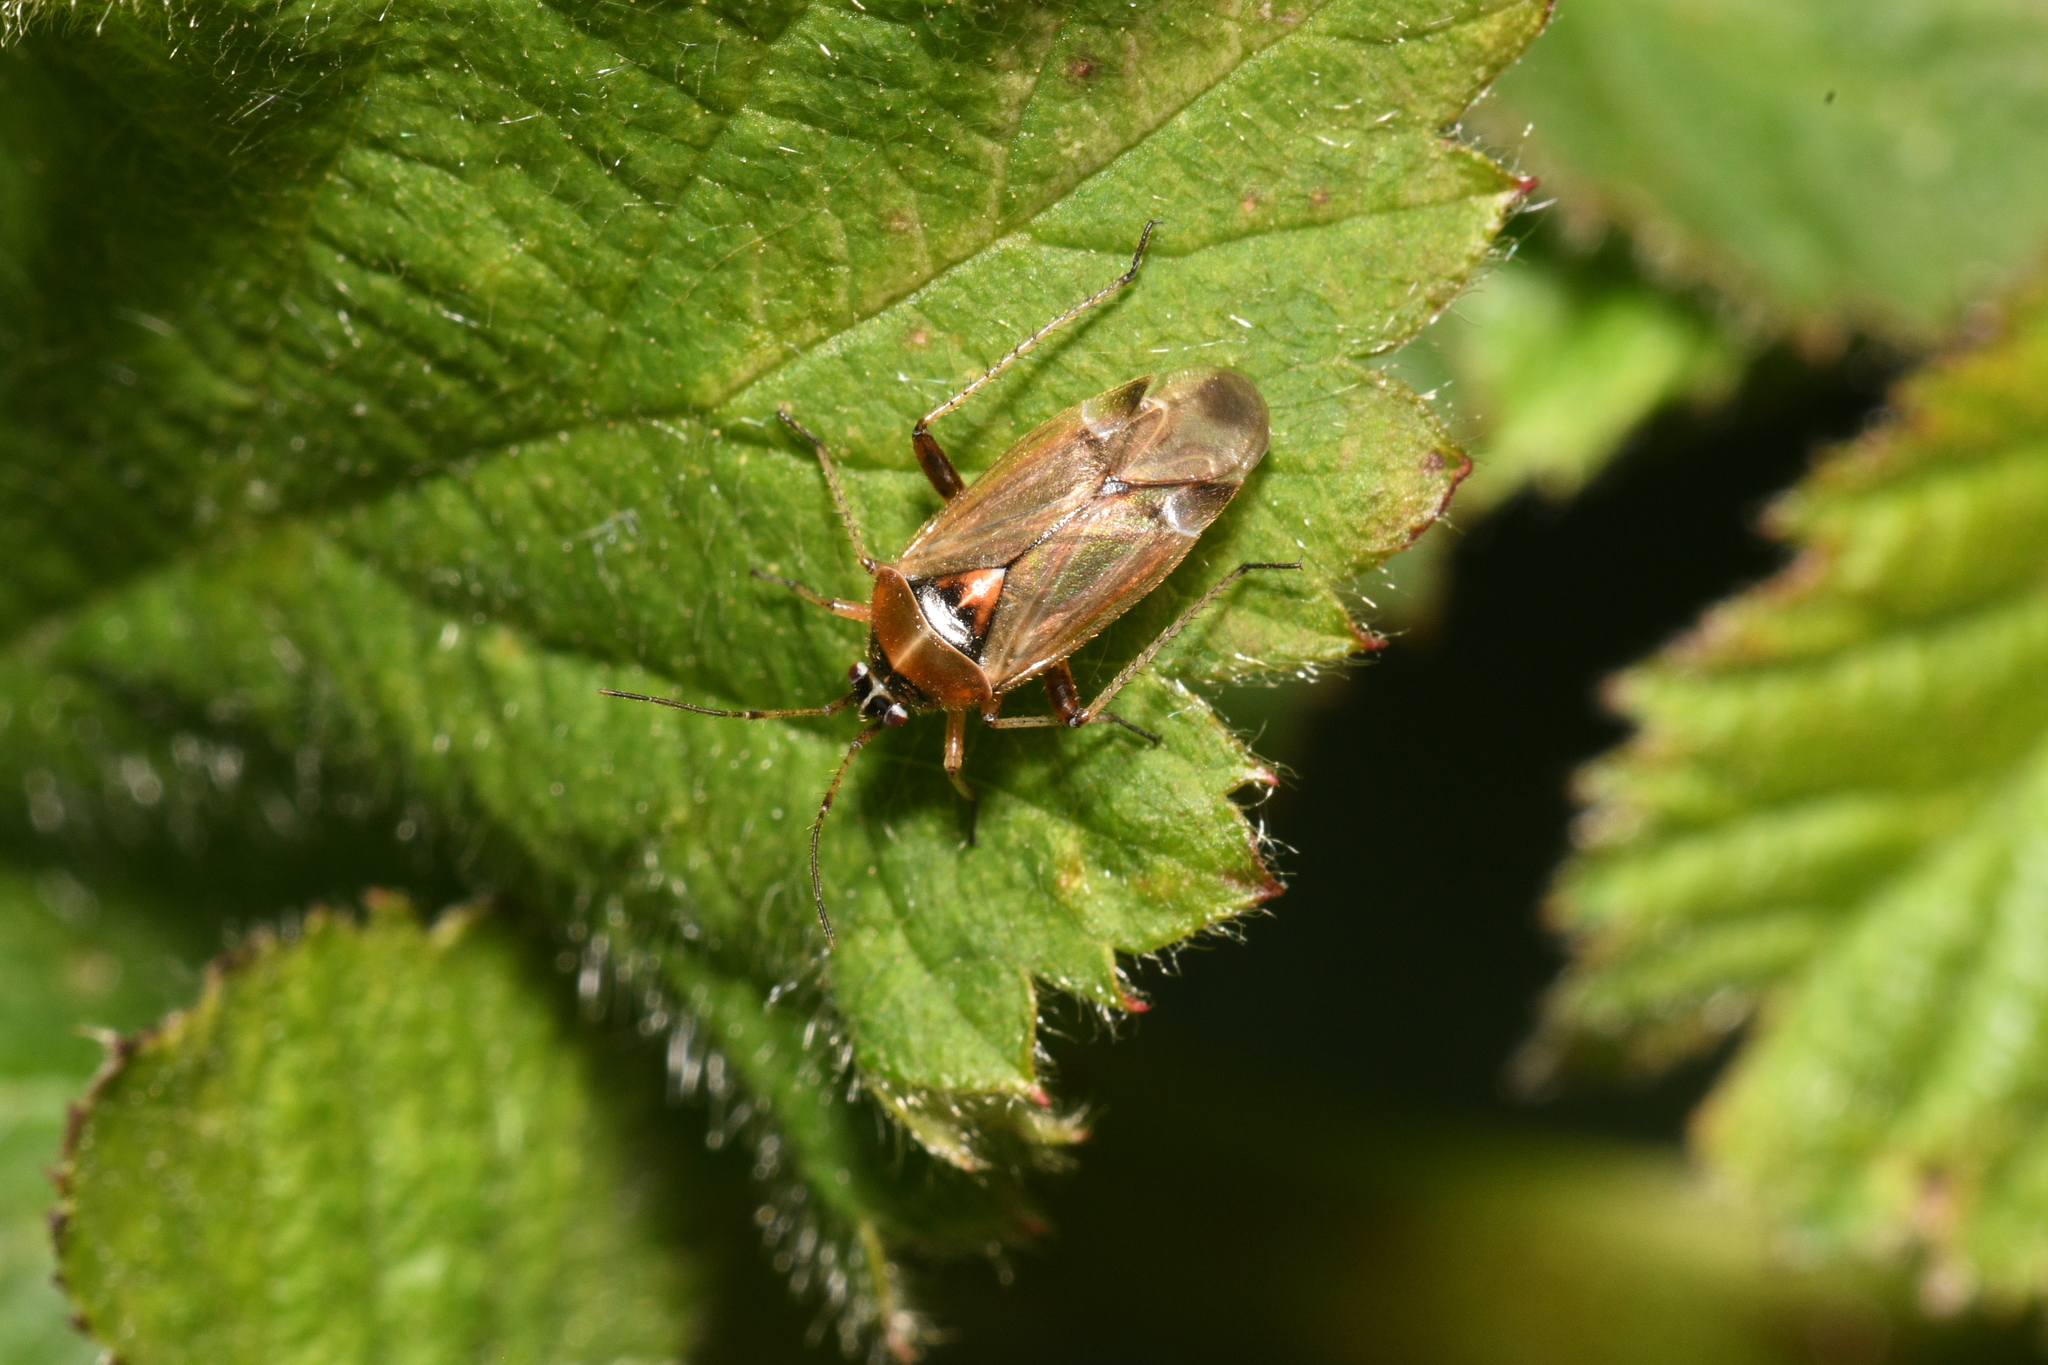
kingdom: Animalia
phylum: Arthropoda
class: Insecta
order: Hemiptera
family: Miridae
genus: Harpocera
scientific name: Harpocera thoracica
